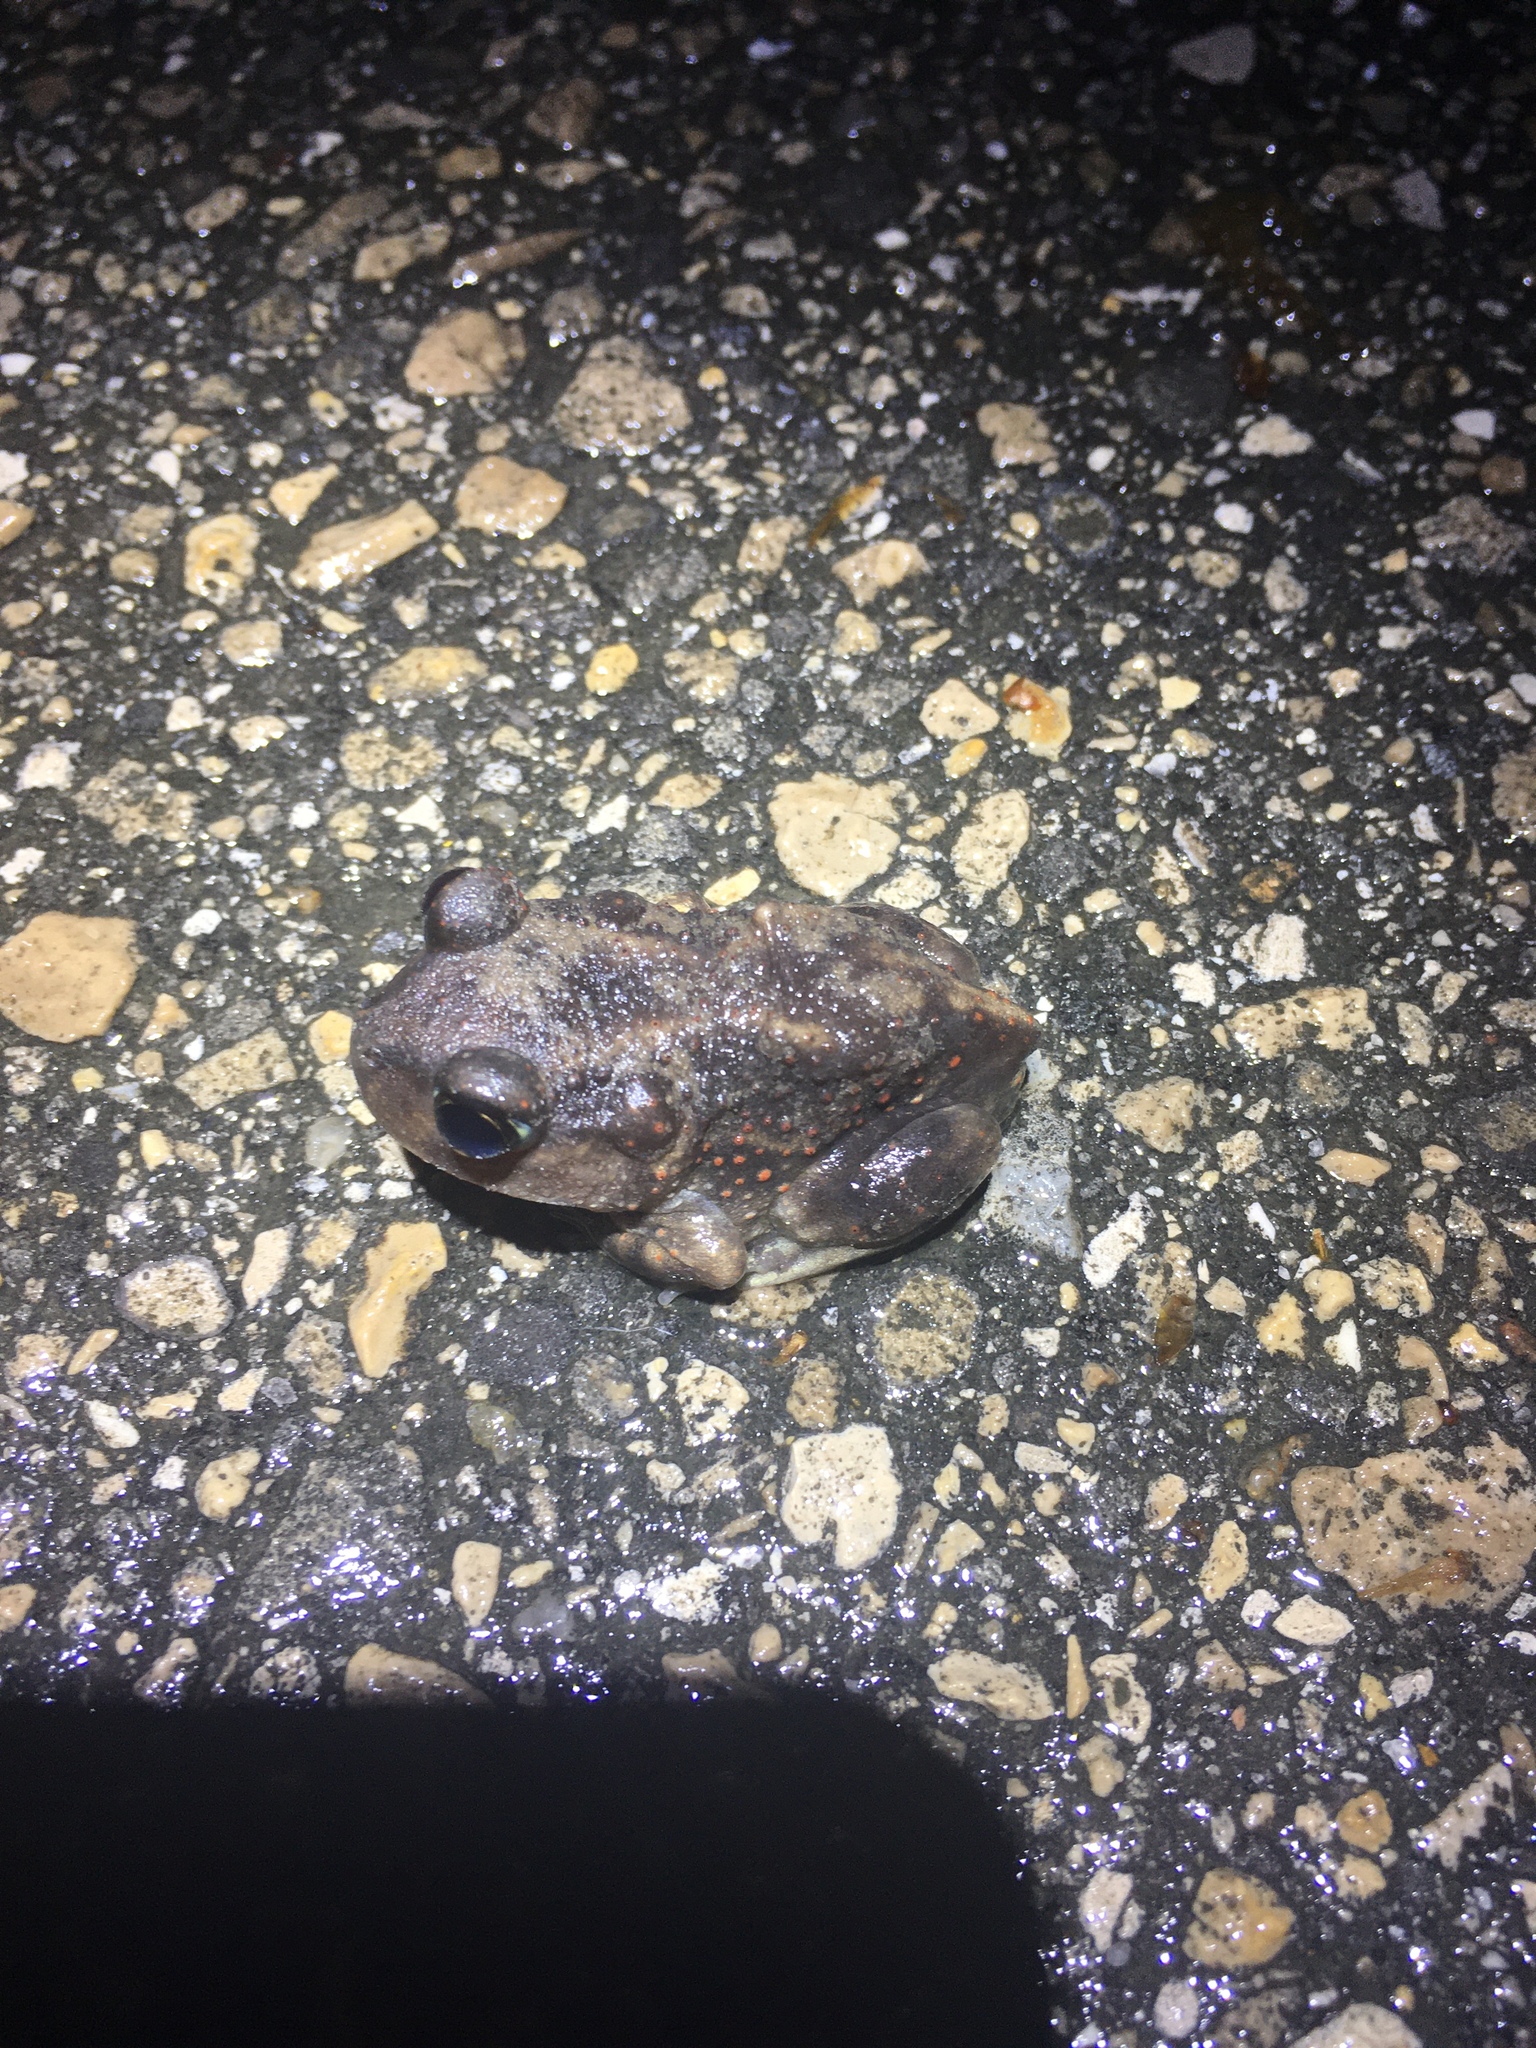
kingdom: Animalia
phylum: Chordata
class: Amphibia
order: Anura
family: Scaphiopodidae
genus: Scaphiopus
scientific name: Scaphiopus holbrookii
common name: Eastern spadefoot toad
